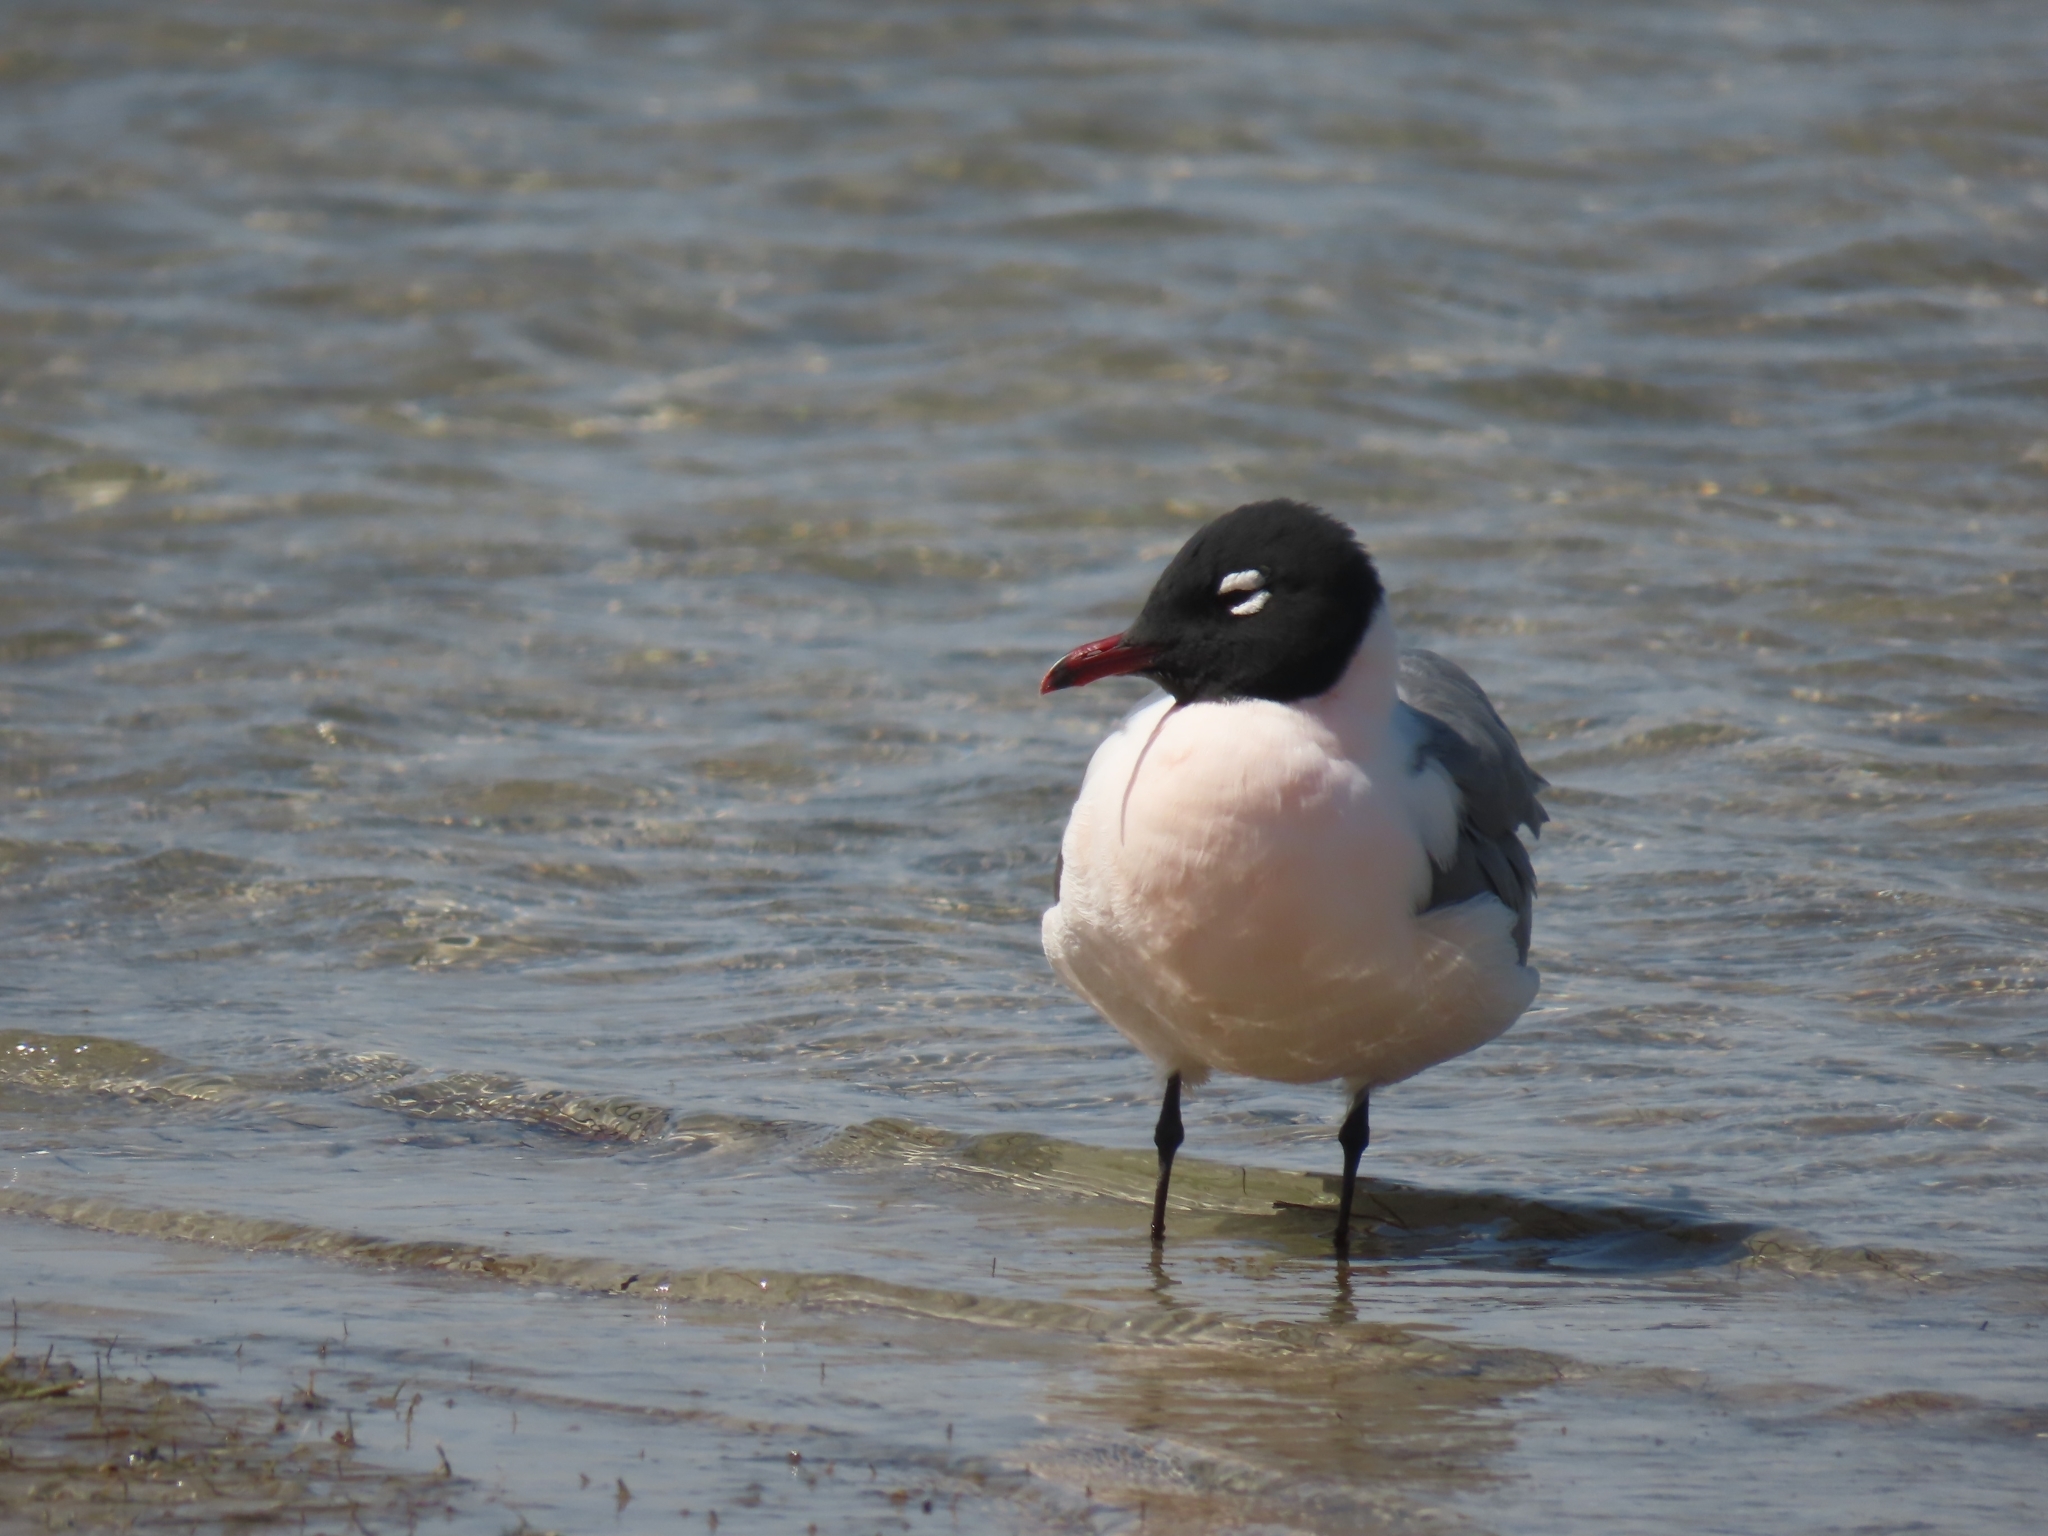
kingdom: Animalia
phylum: Chordata
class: Aves
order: Charadriiformes
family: Laridae
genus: Leucophaeus
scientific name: Leucophaeus pipixcan
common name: Franklin's gull
